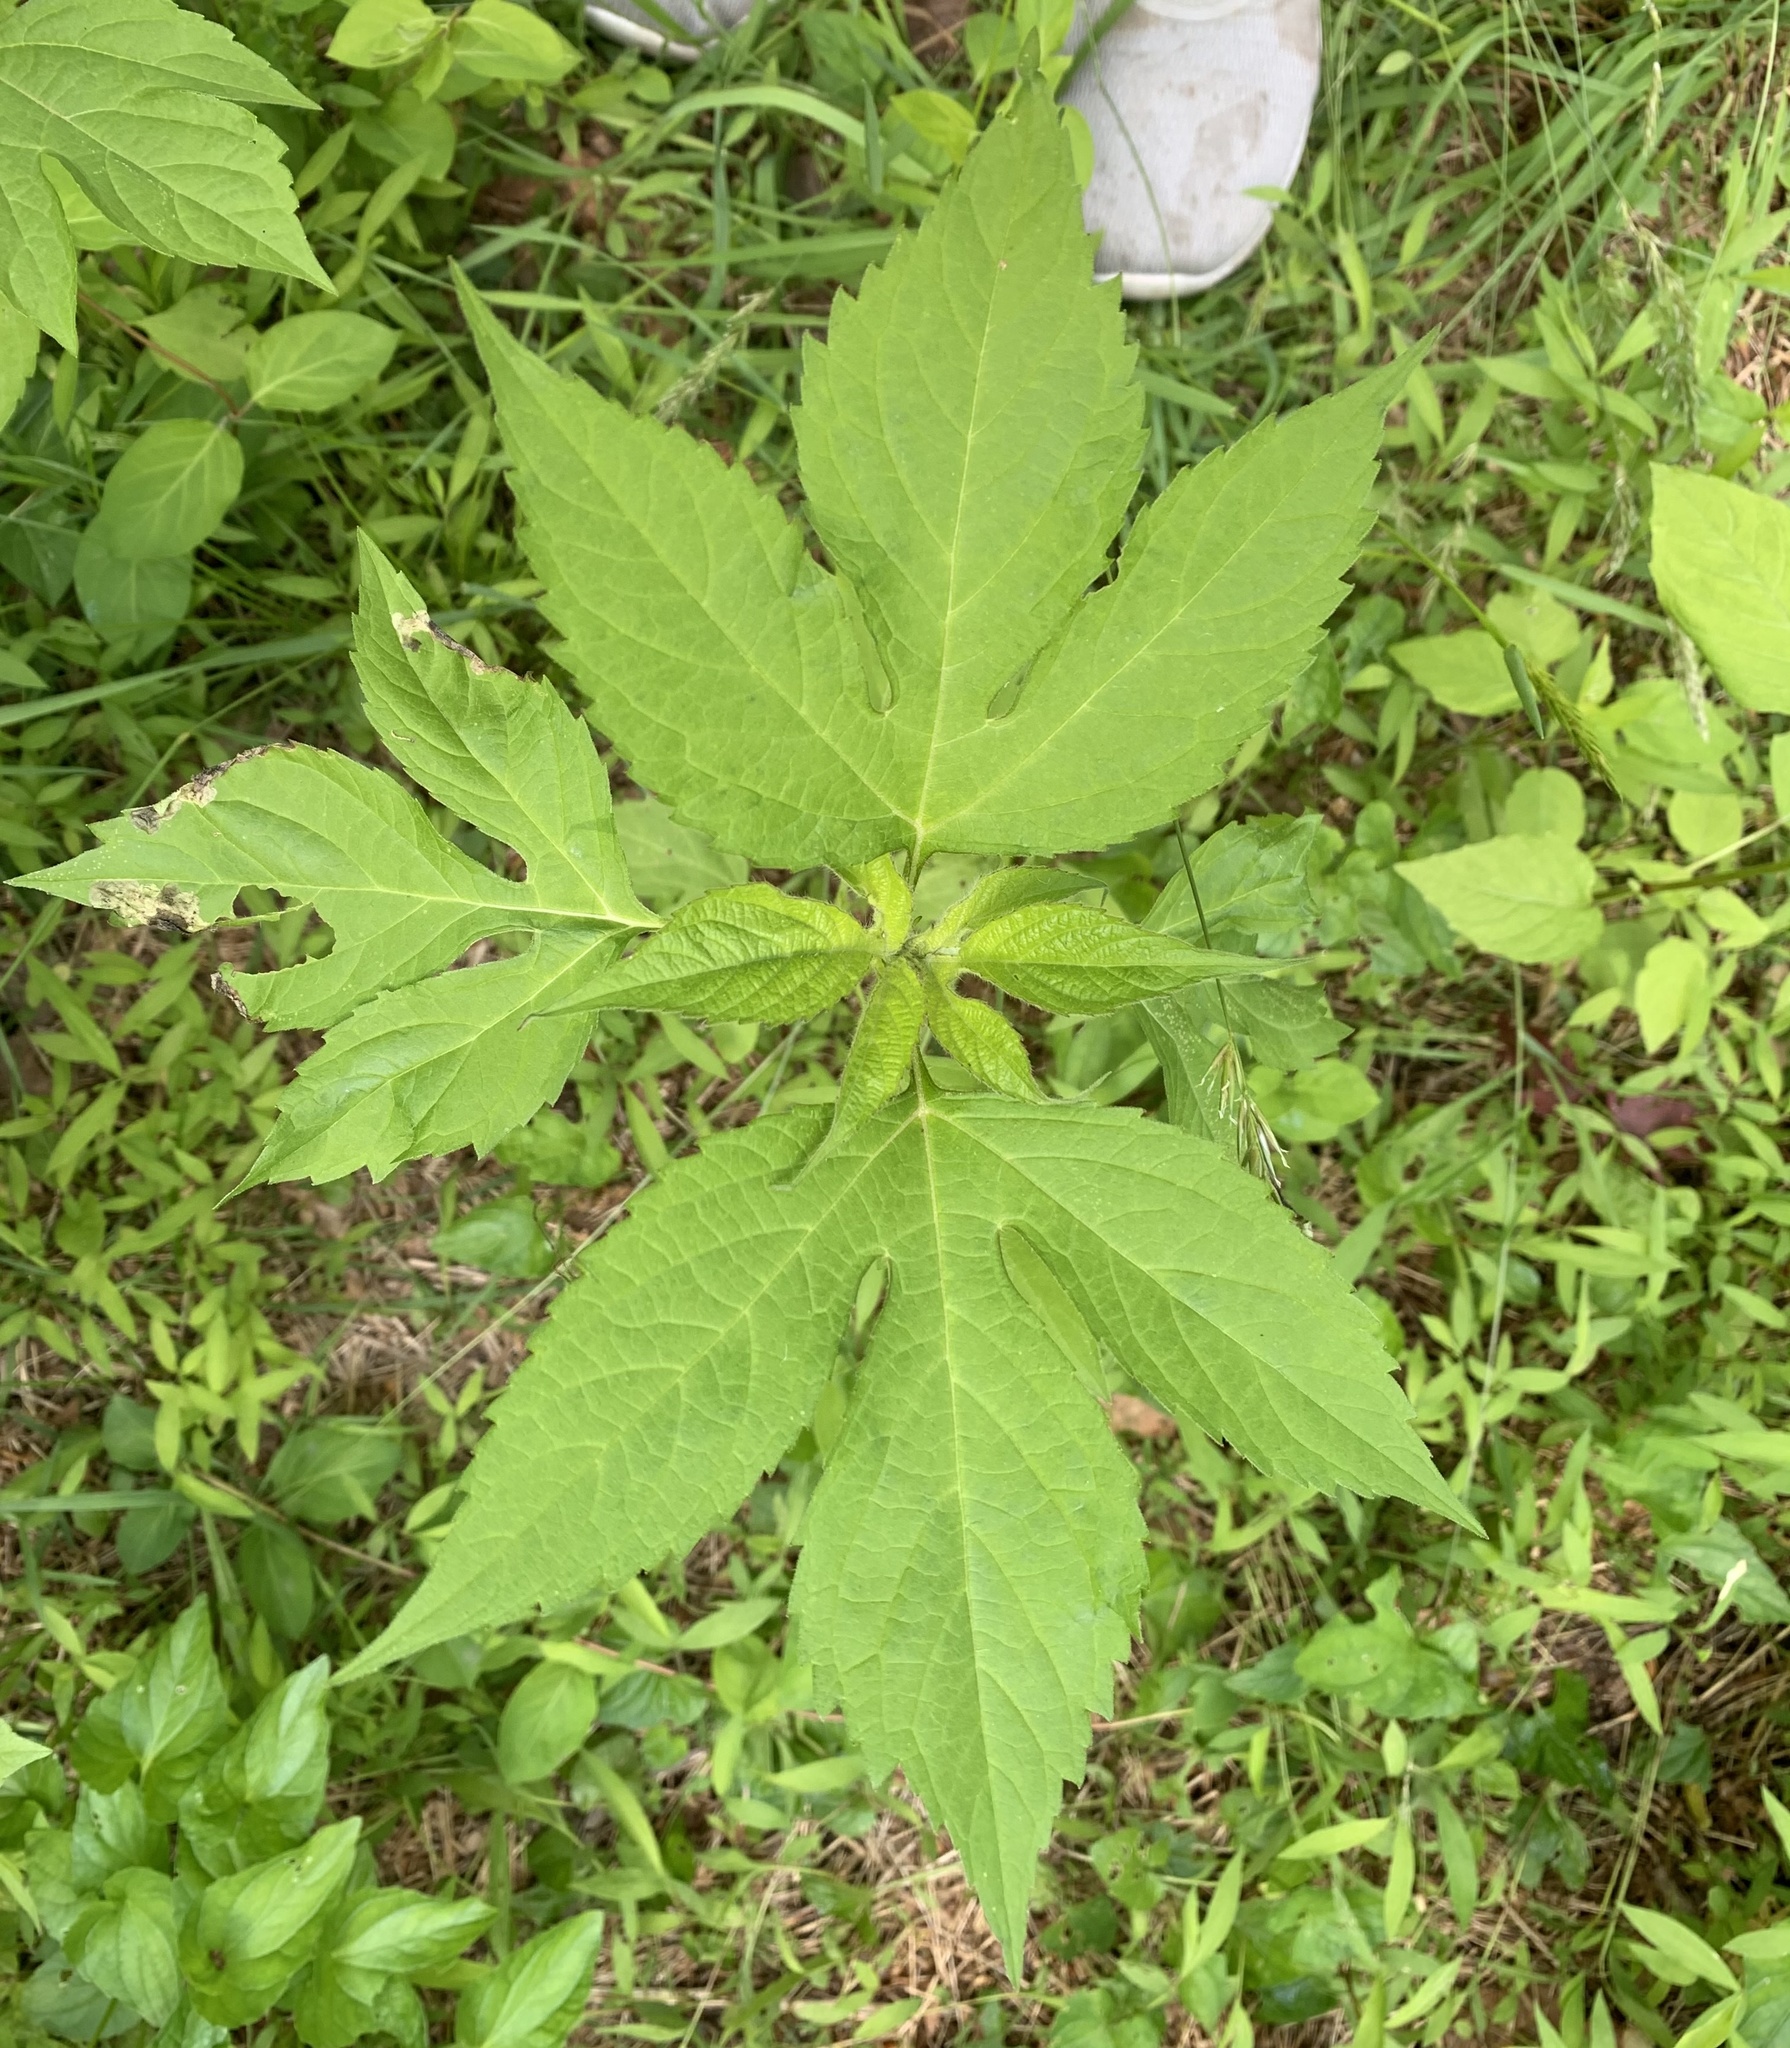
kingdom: Plantae
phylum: Tracheophyta
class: Magnoliopsida
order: Asterales
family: Asteraceae
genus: Ambrosia
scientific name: Ambrosia trifida
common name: Giant ragweed
